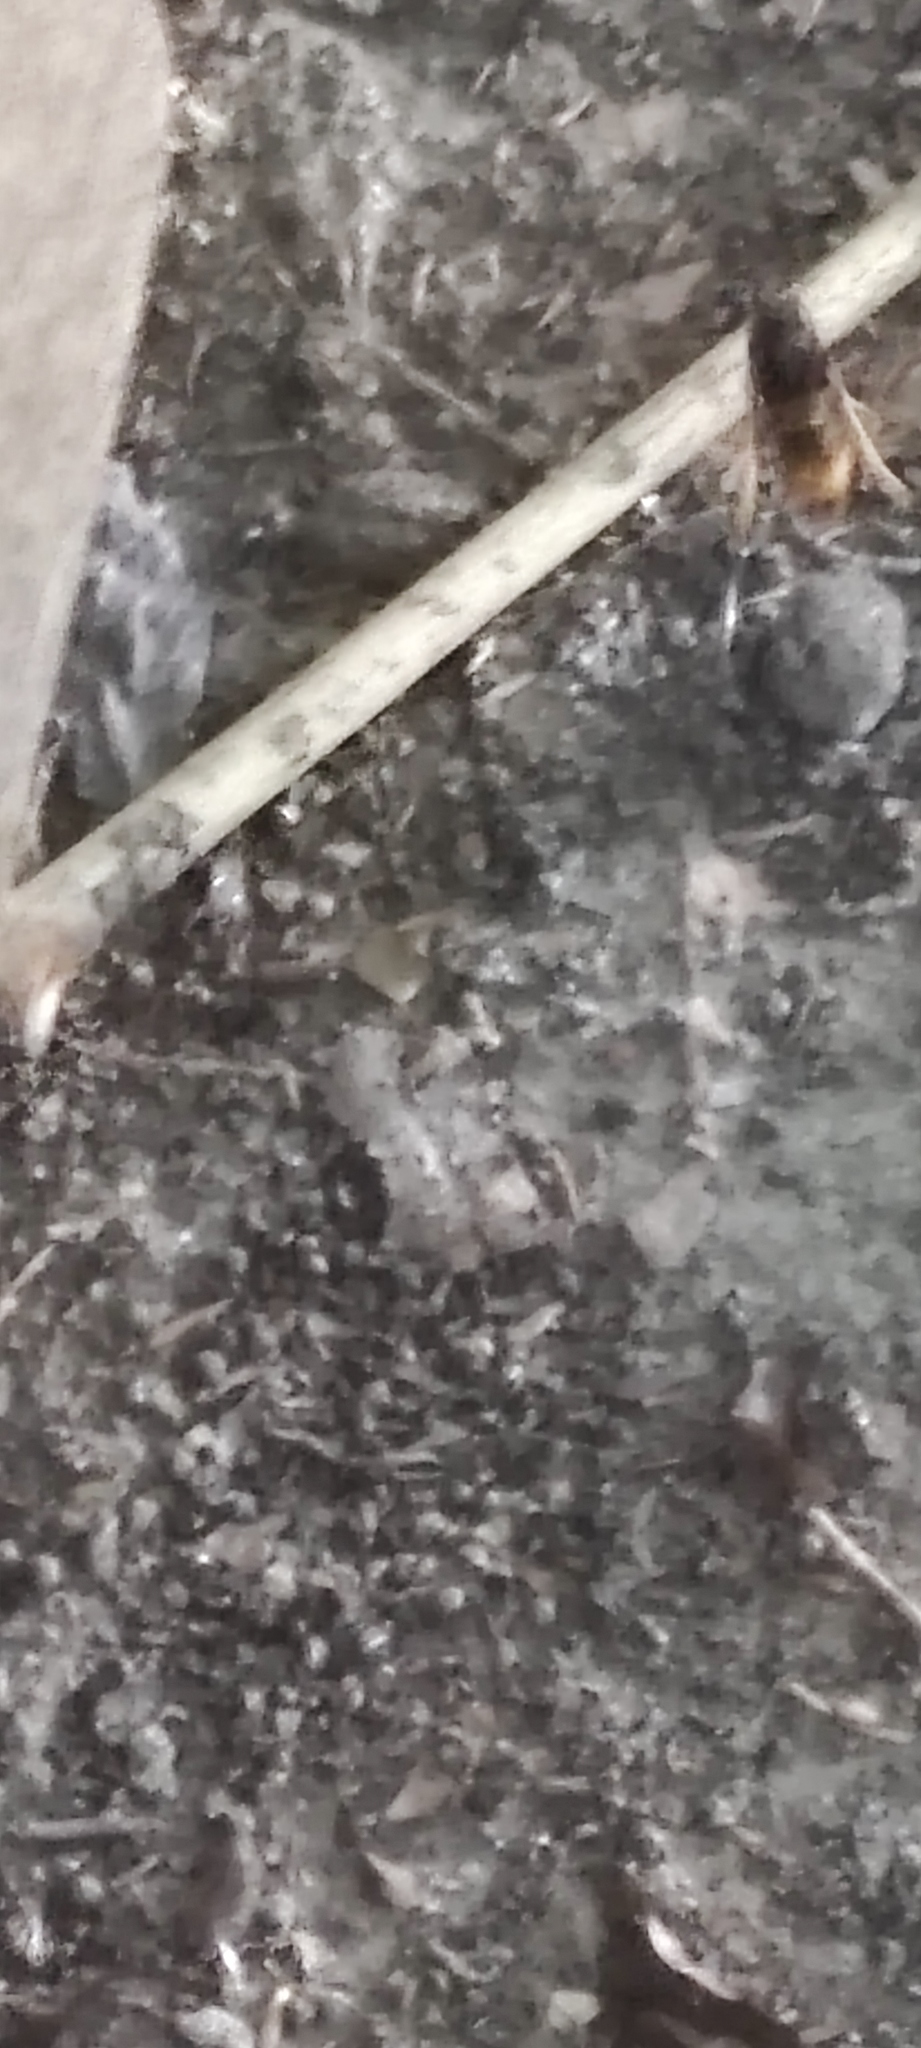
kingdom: Animalia
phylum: Arthropoda
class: Insecta
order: Hymenoptera
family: Vespidae
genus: Vespa
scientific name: Vespa velutina
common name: Asian hornet
